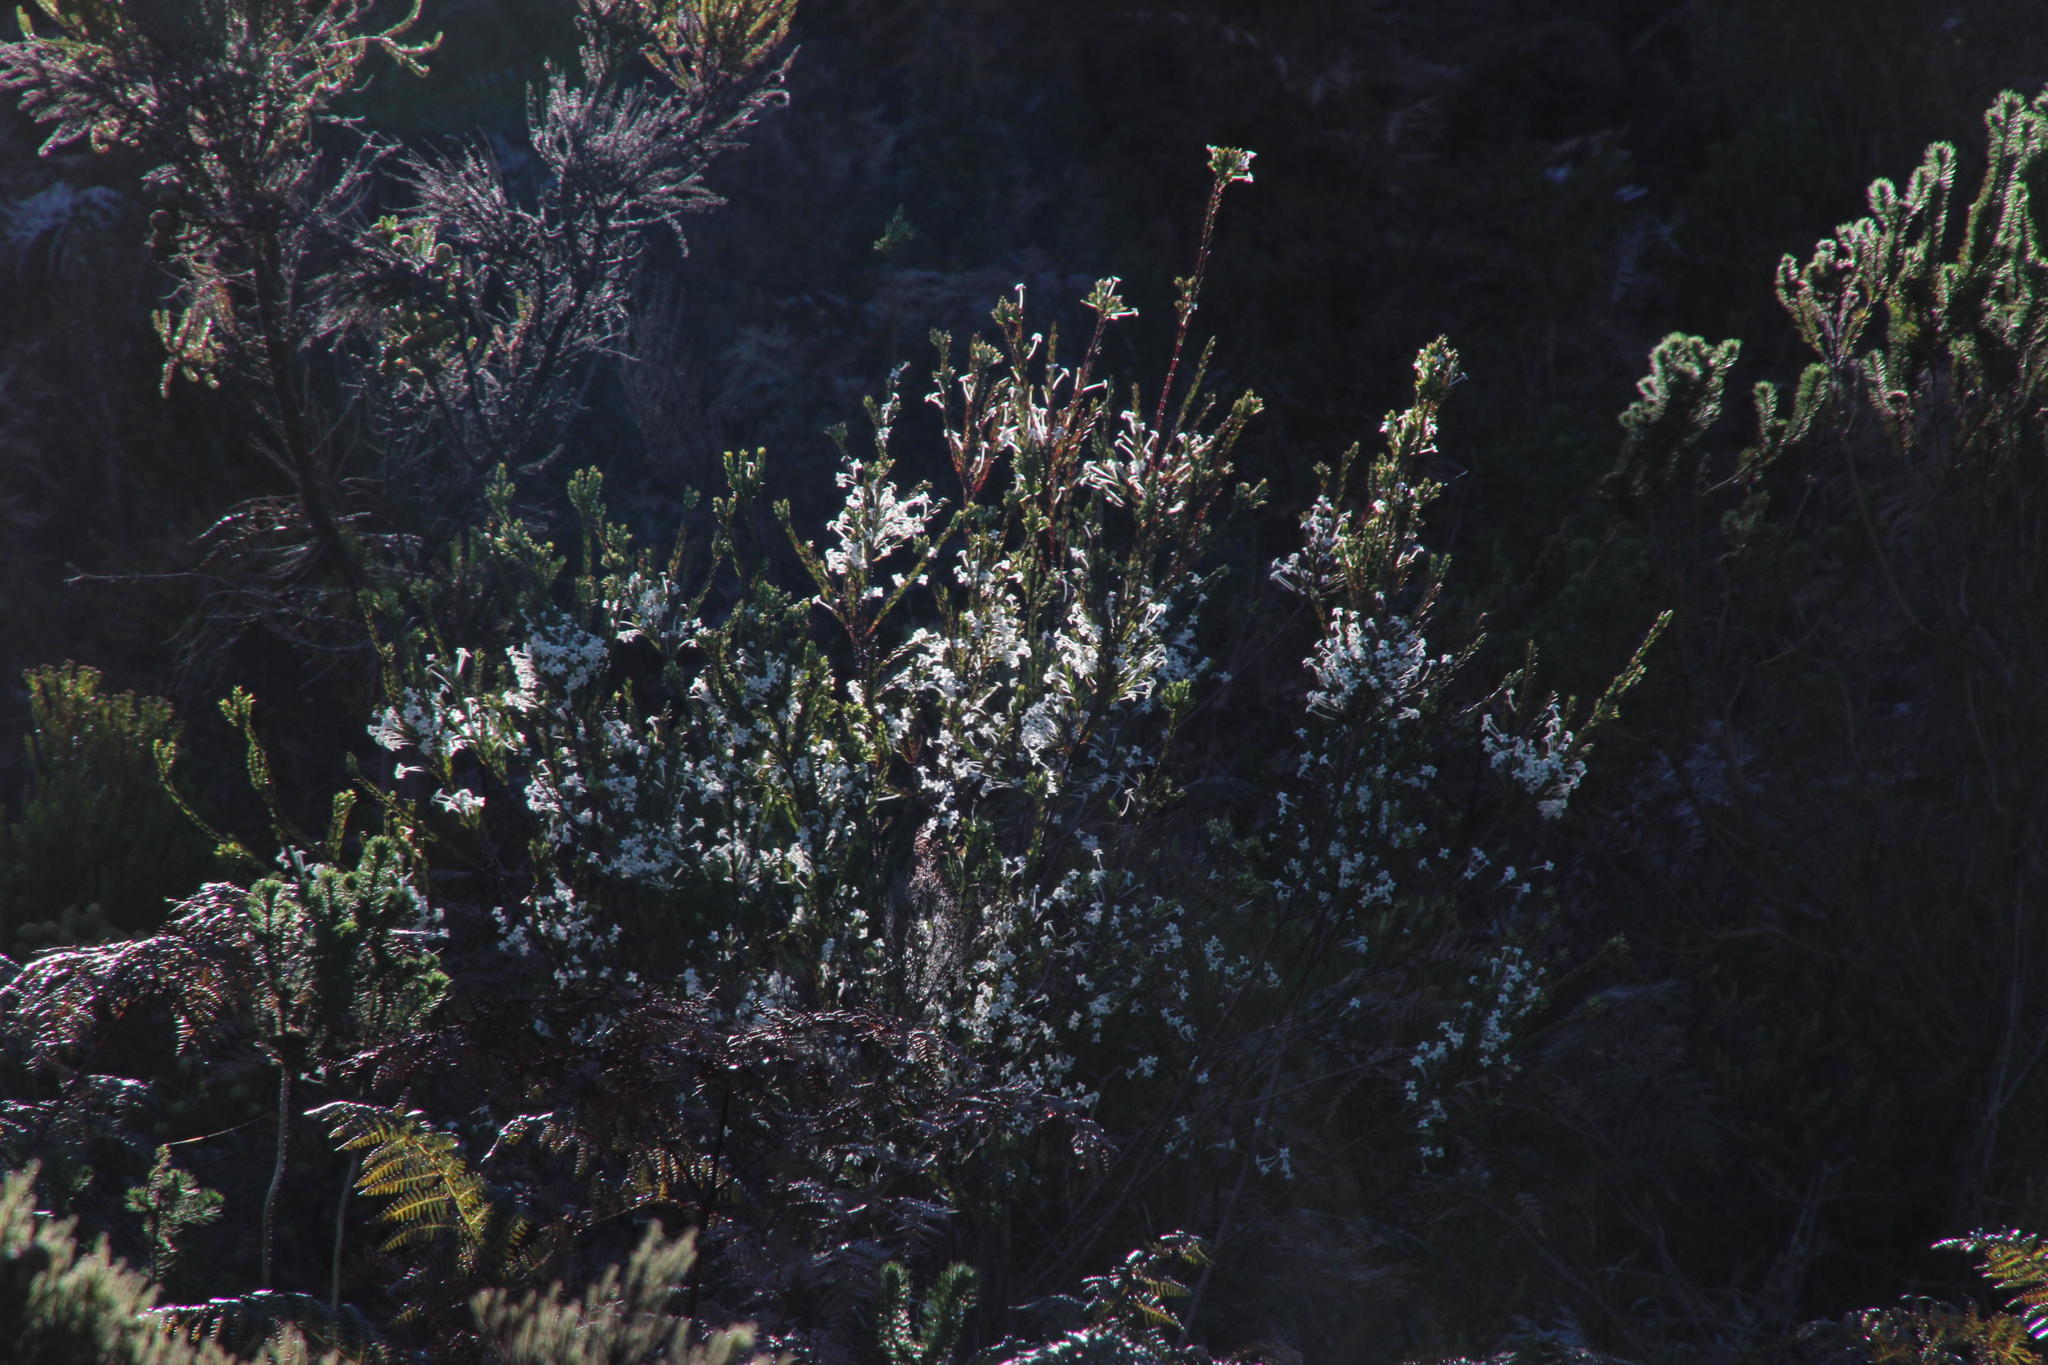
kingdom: Plantae
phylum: Tracheophyta
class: Magnoliopsida
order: Malvales
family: Thymelaeaceae
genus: Struthiola
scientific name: Struthiola myrsinites
